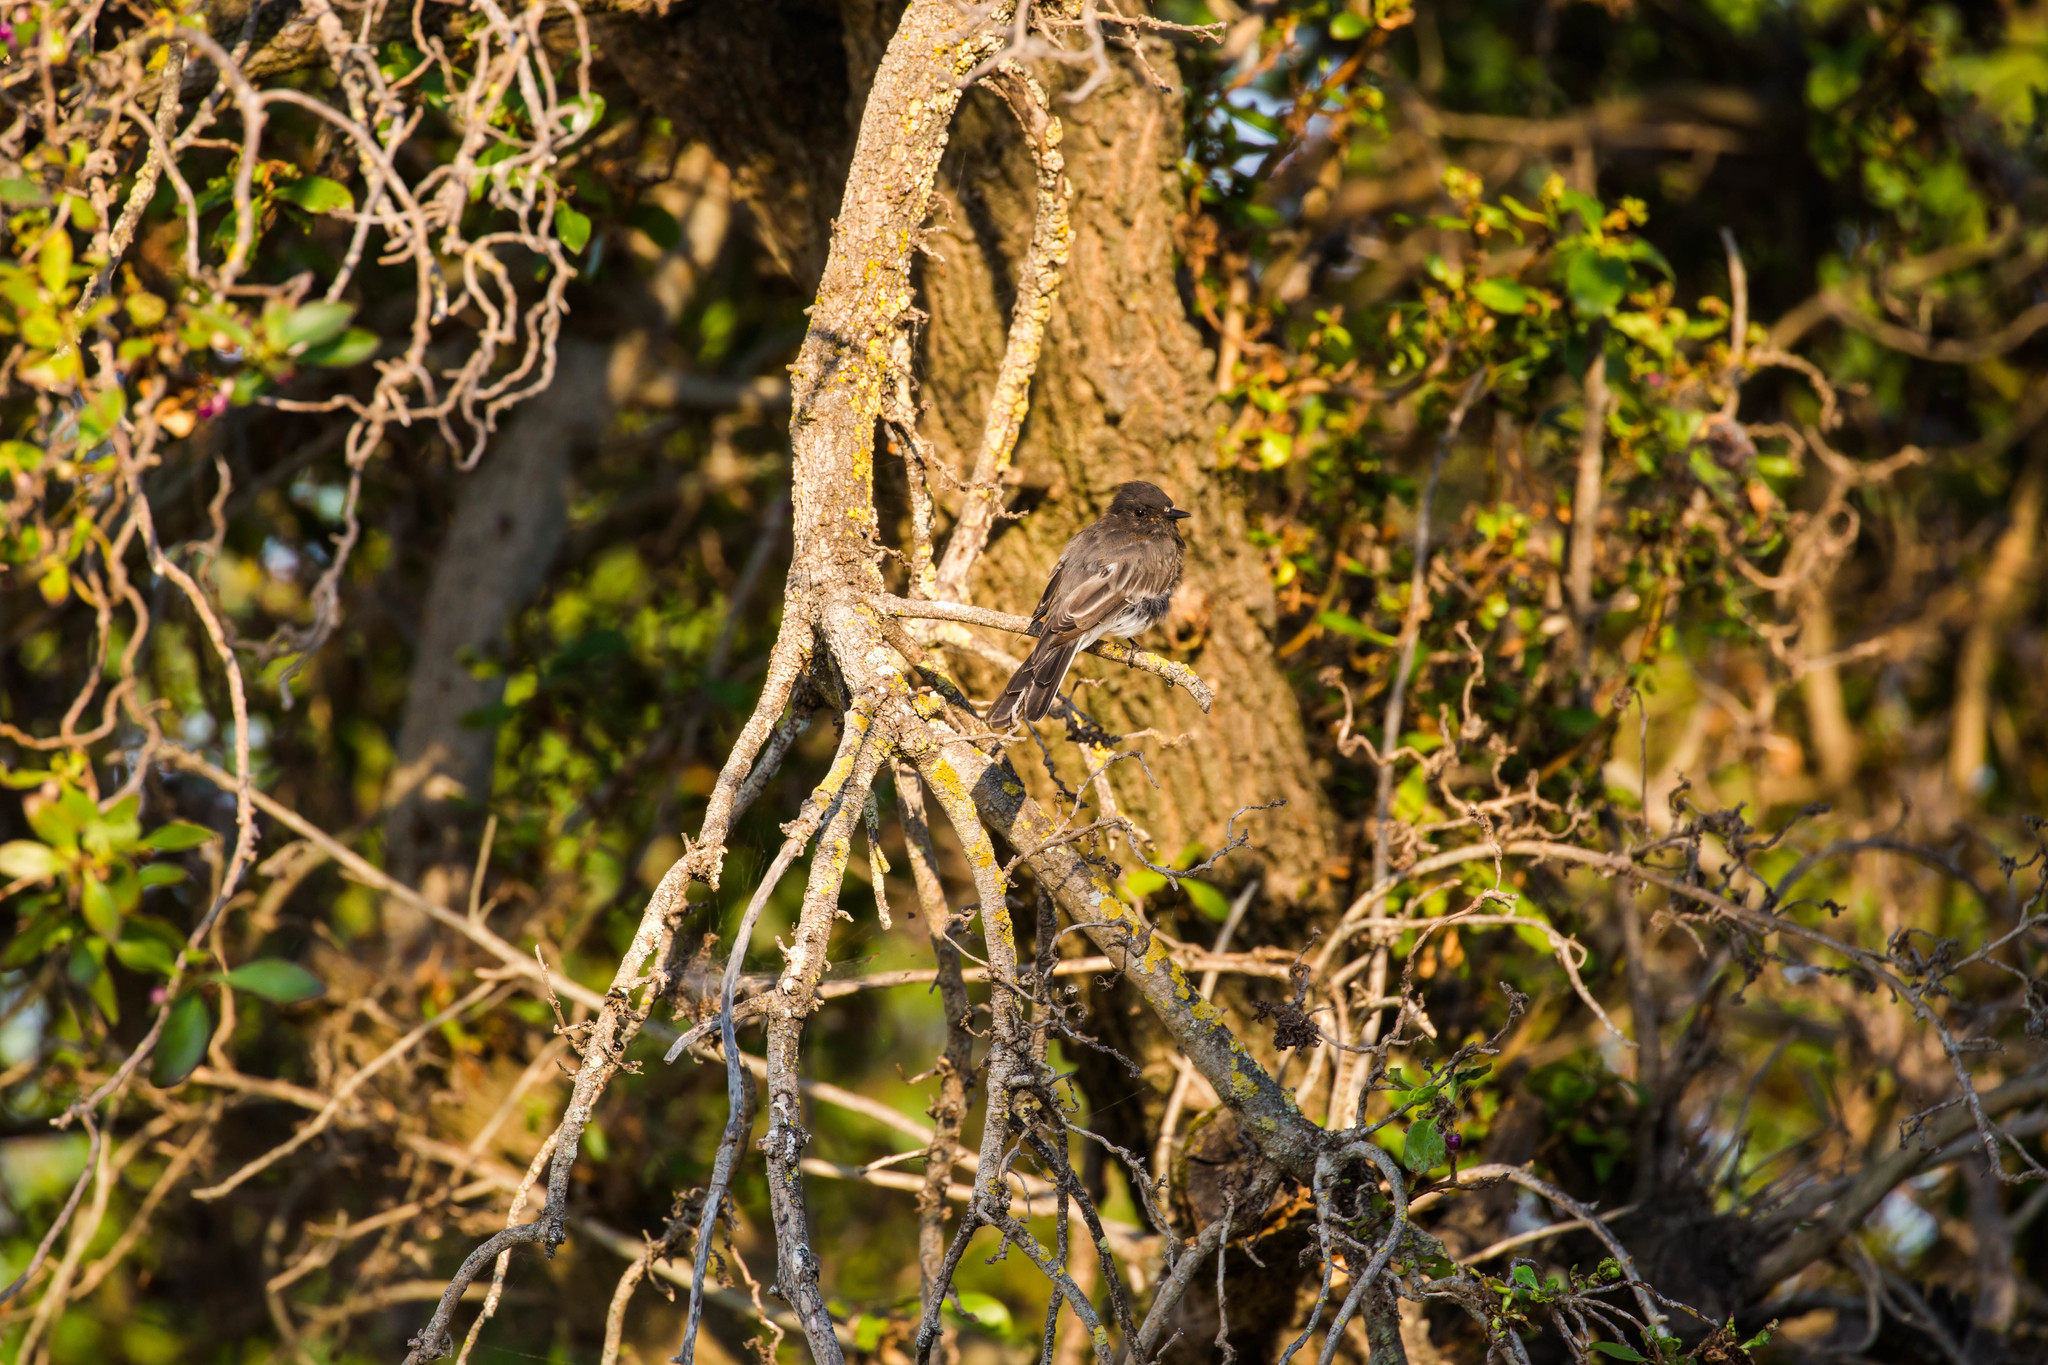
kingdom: Animalia
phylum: Chordata
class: Aves
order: Passeriformes
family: Tyrannidae
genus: Sayornis
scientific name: Sayornis nigricans
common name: Black phoebe
